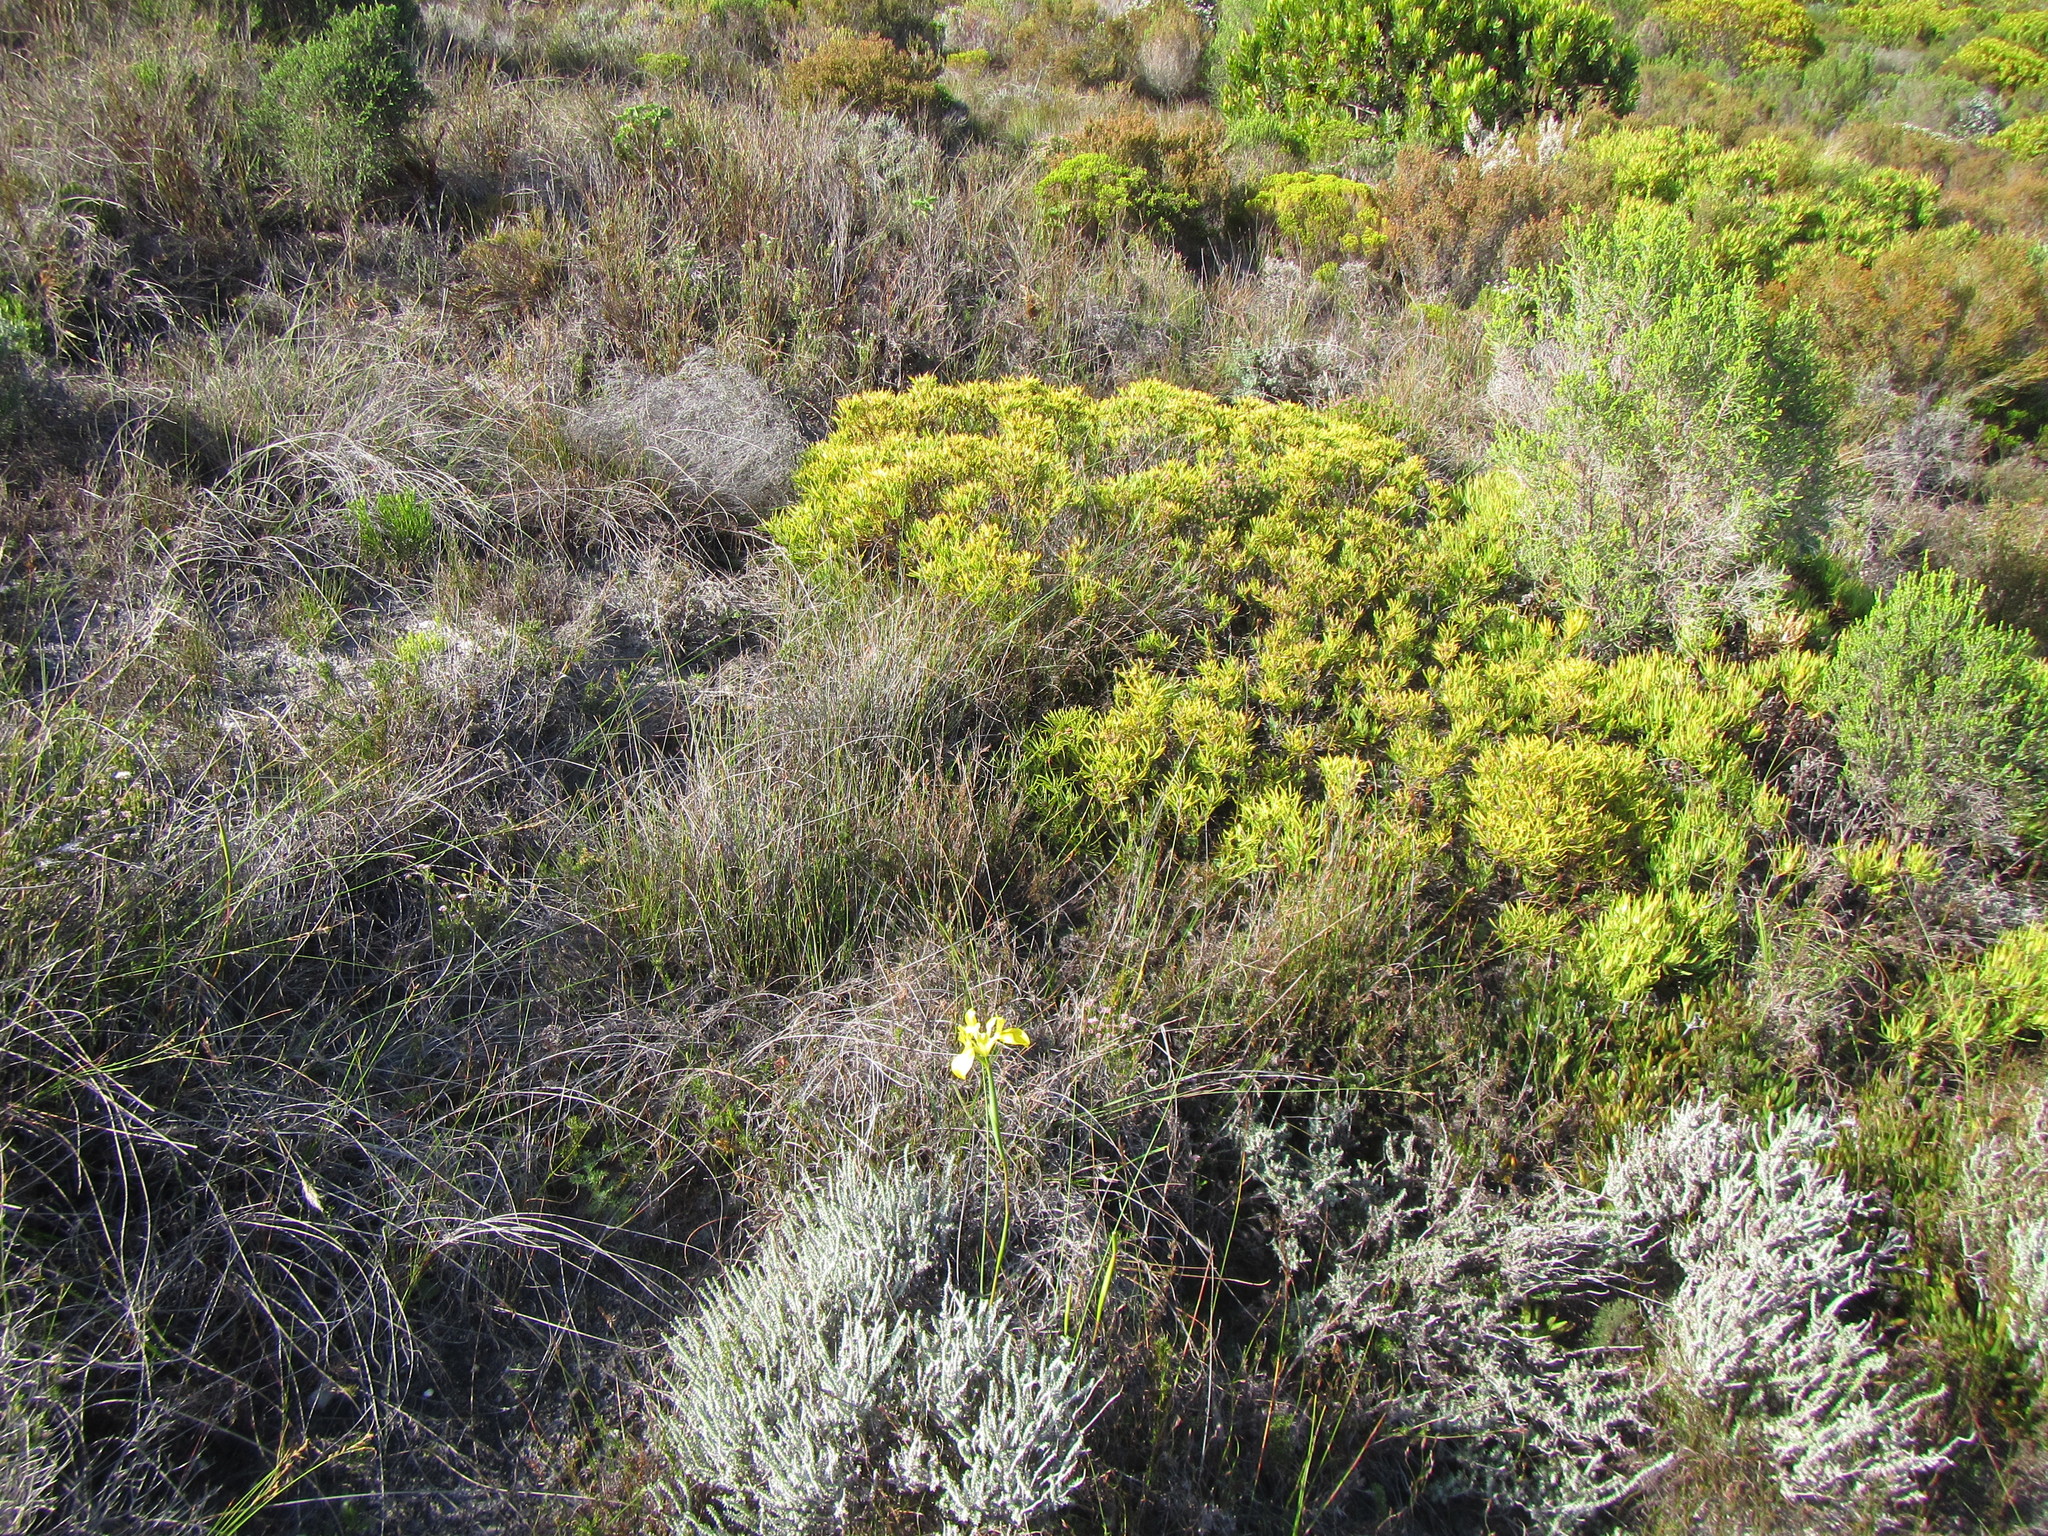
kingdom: Plantae
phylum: Tracheophyta
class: Liliopsida
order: Asparagales
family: Iridaceae
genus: Moraea
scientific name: Moraea neglecta
